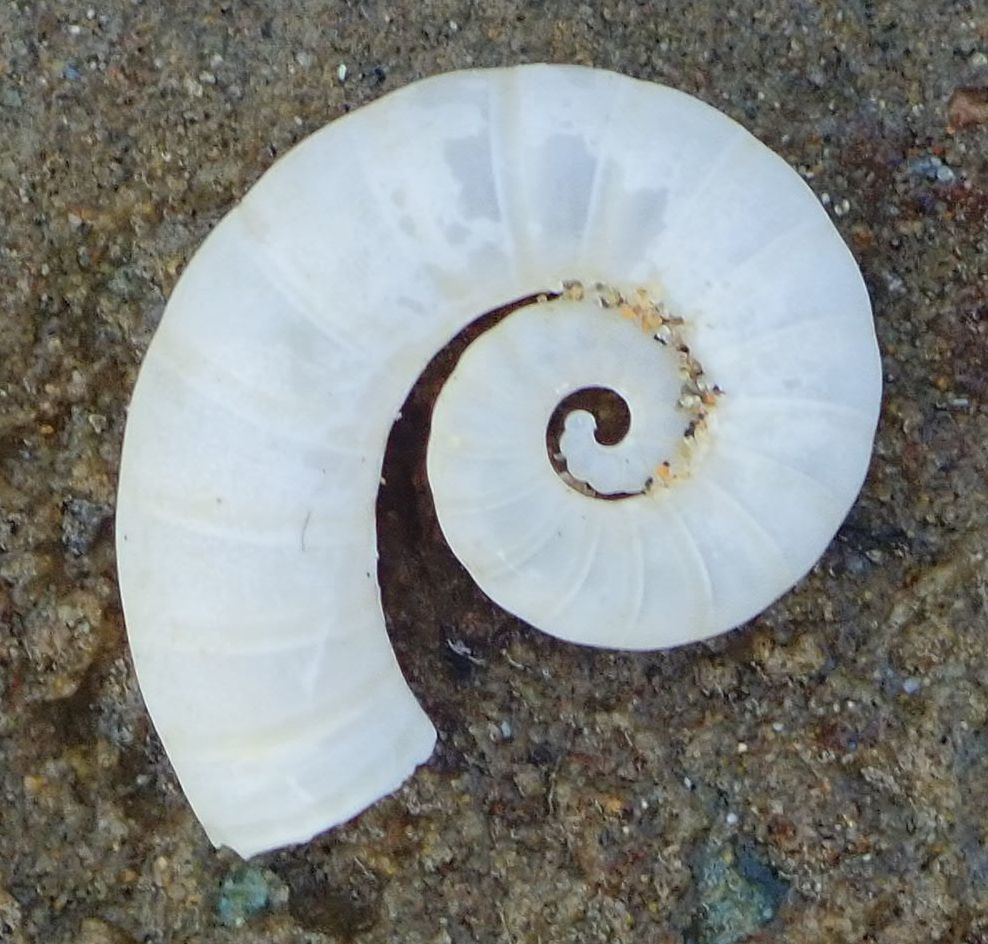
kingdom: Animalia
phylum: Mollusca
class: Cephalopoda
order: Spirulida
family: Spirulidae
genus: Spirula
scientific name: Spirula spirula
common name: Ram's horn squid
